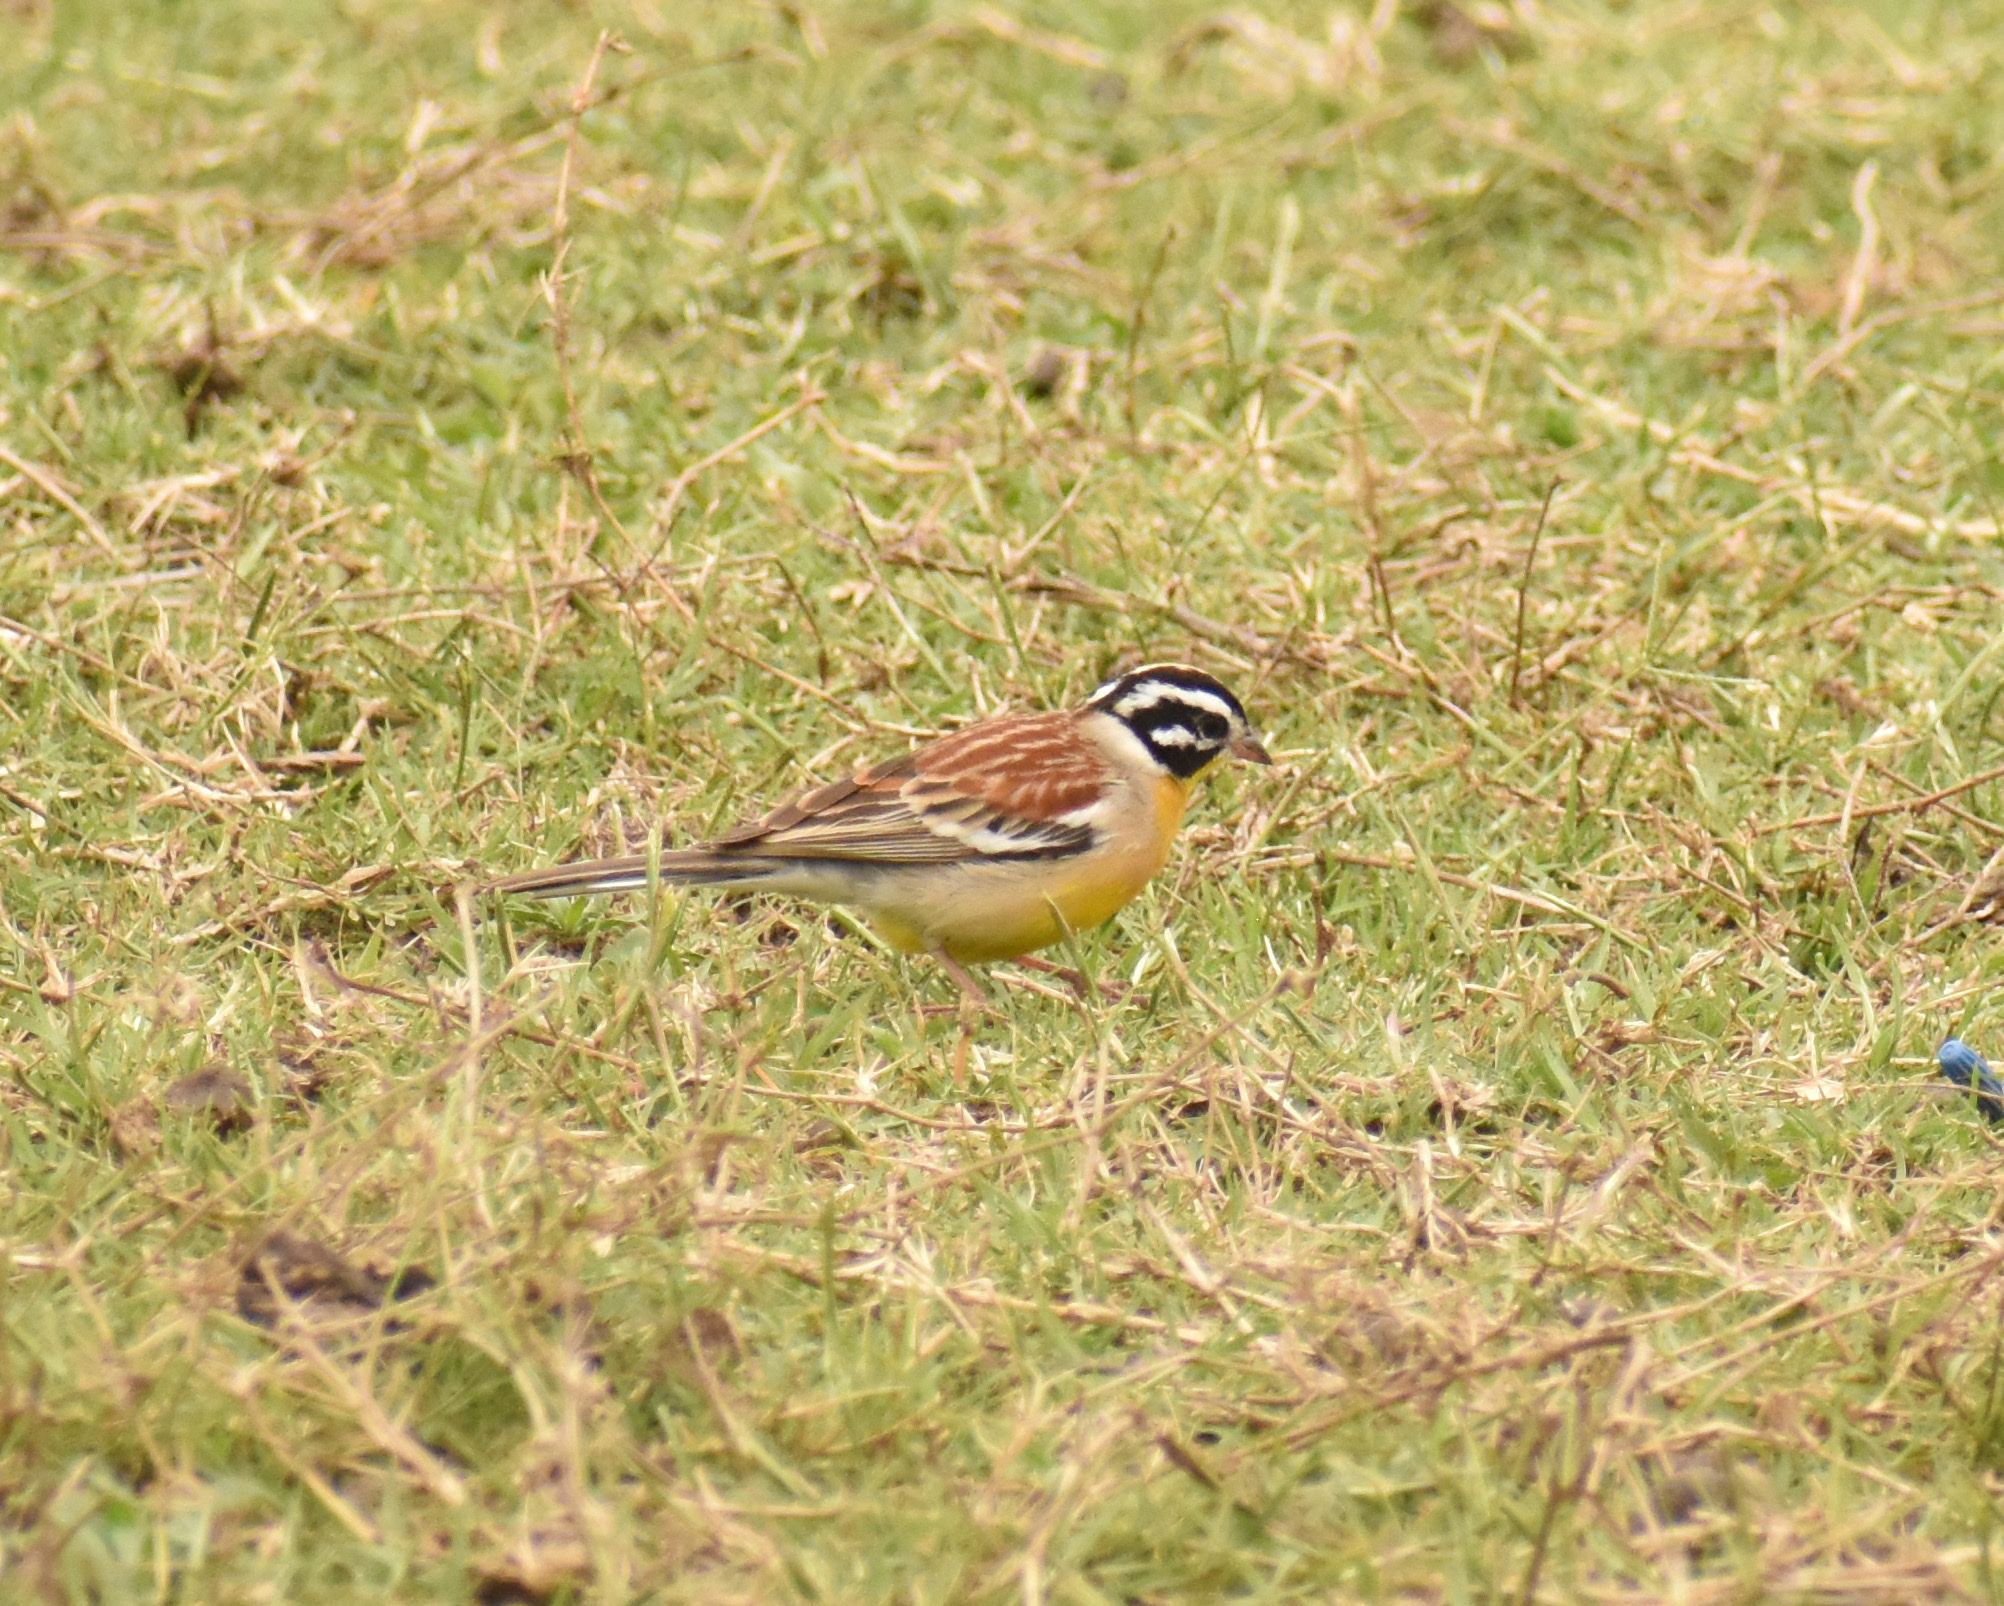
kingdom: Animalia
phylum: Chordata
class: Aves
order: Passeriformes
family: Emberizidae
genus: Emberiza
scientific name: Emberiza flaviventris
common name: Golden-breasted bunting
